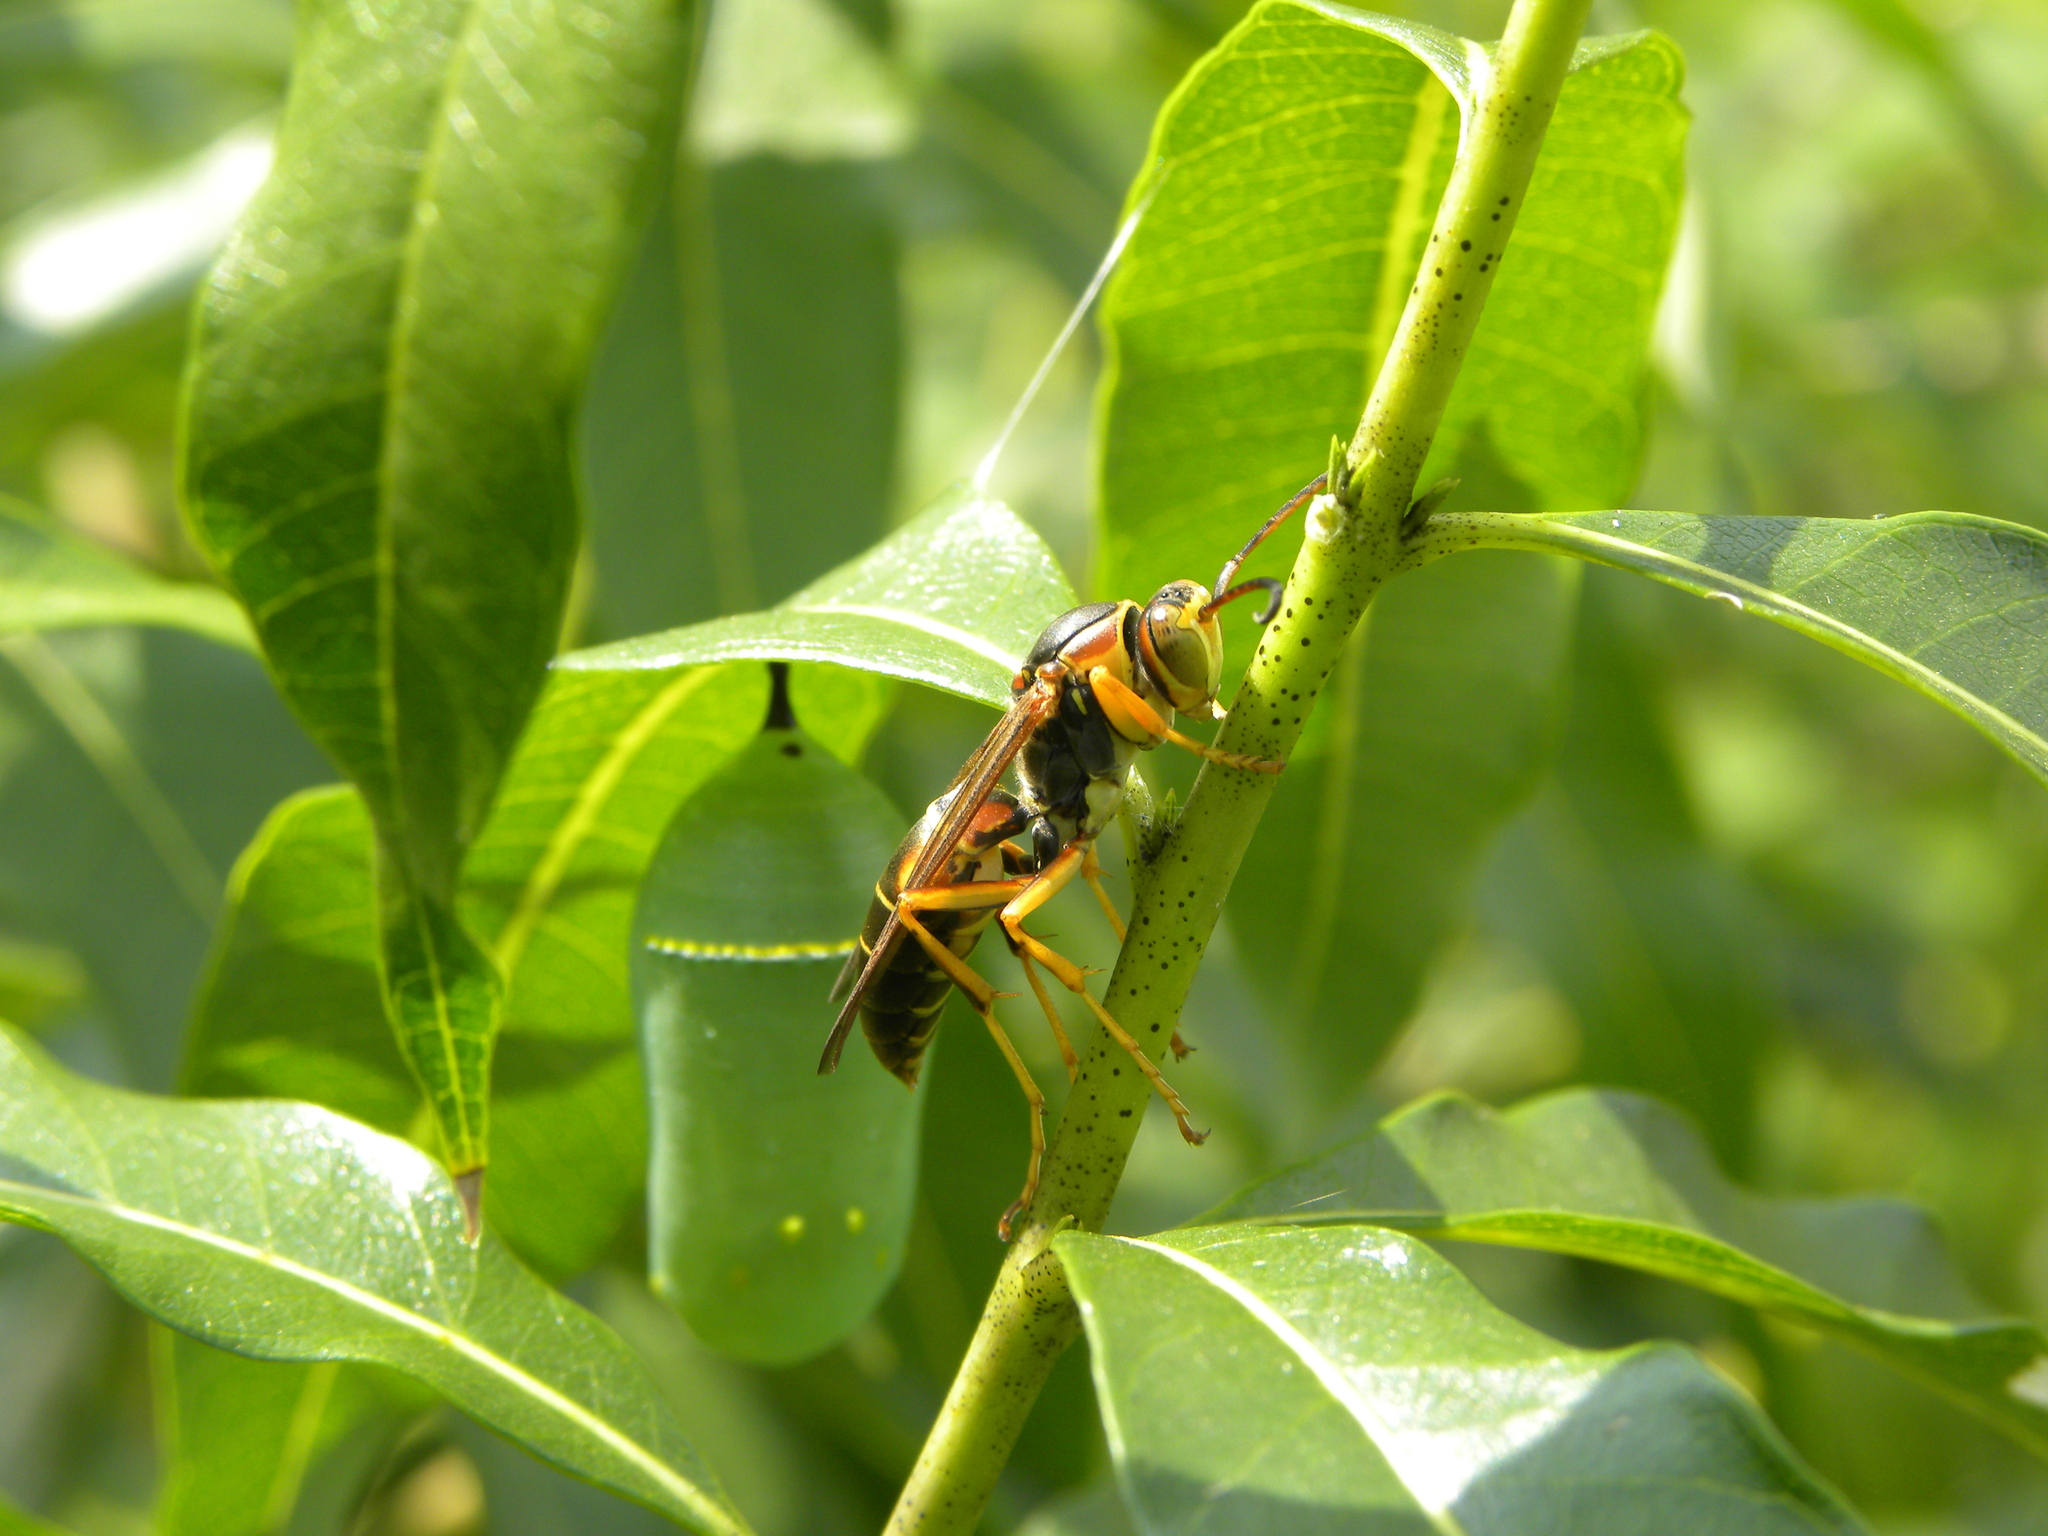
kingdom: Animalia
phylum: Arthropoda
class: Insecta
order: Hymenoptera
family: Eumenidae
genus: Polistes
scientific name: Polistes fuscatus
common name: Dark paper wasp
